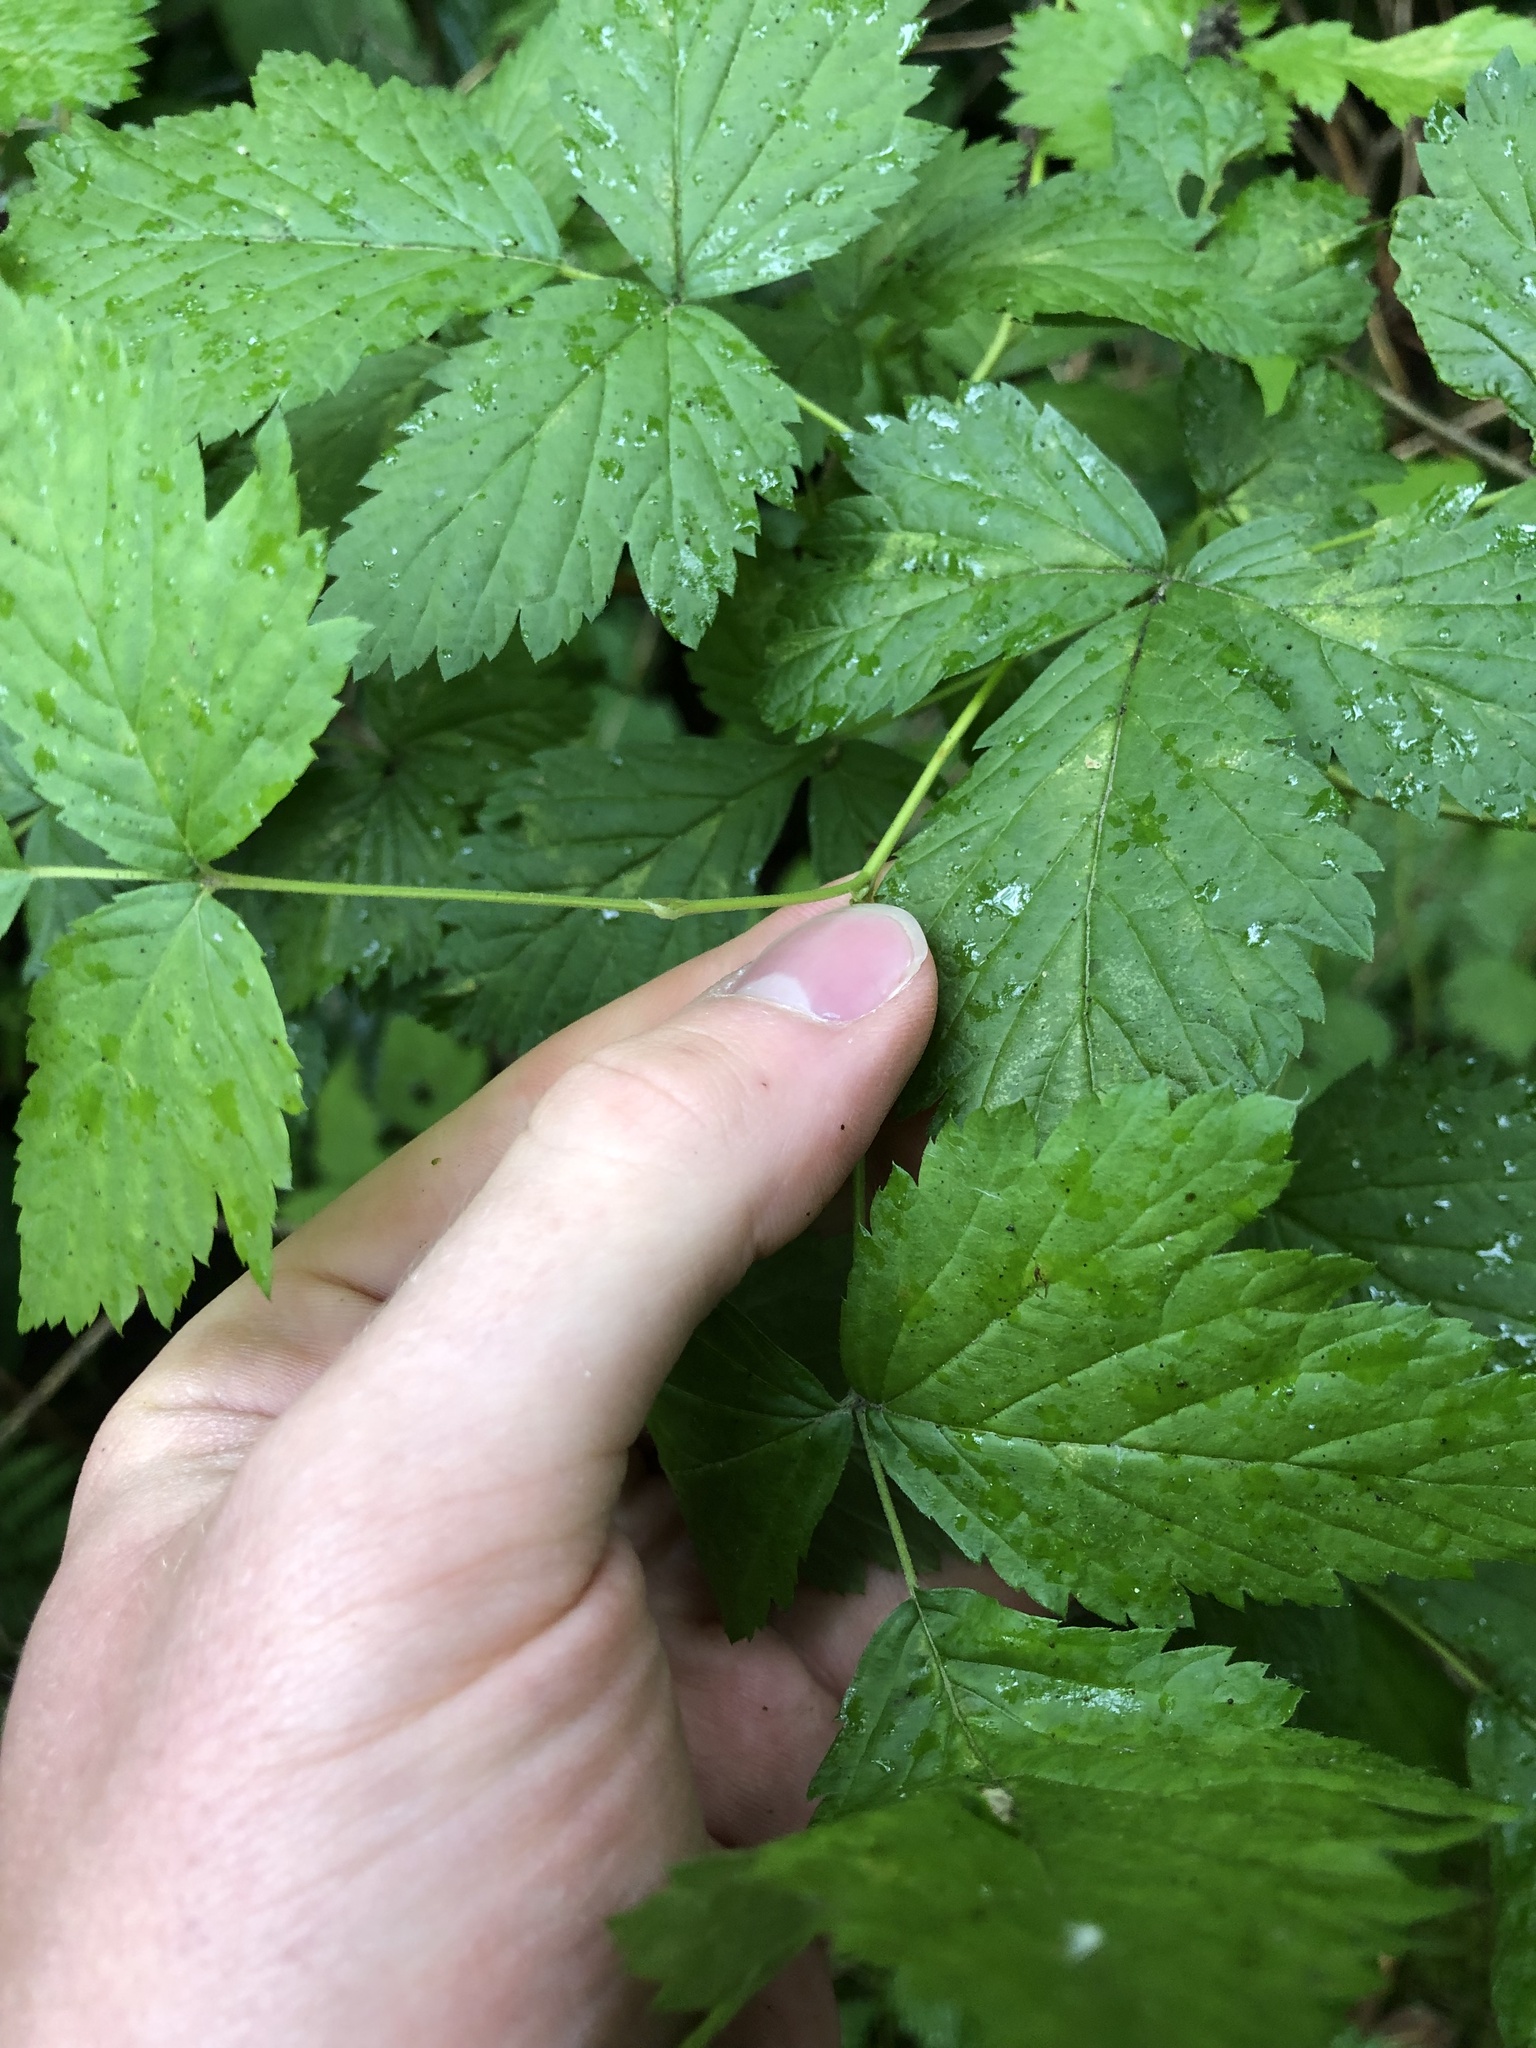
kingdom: Plantae
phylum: Tracheophyta
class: Magnoliopsida
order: Rosales
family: Rosaceae
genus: Rubus
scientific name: Rubus spectabilis
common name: Salmonberry
